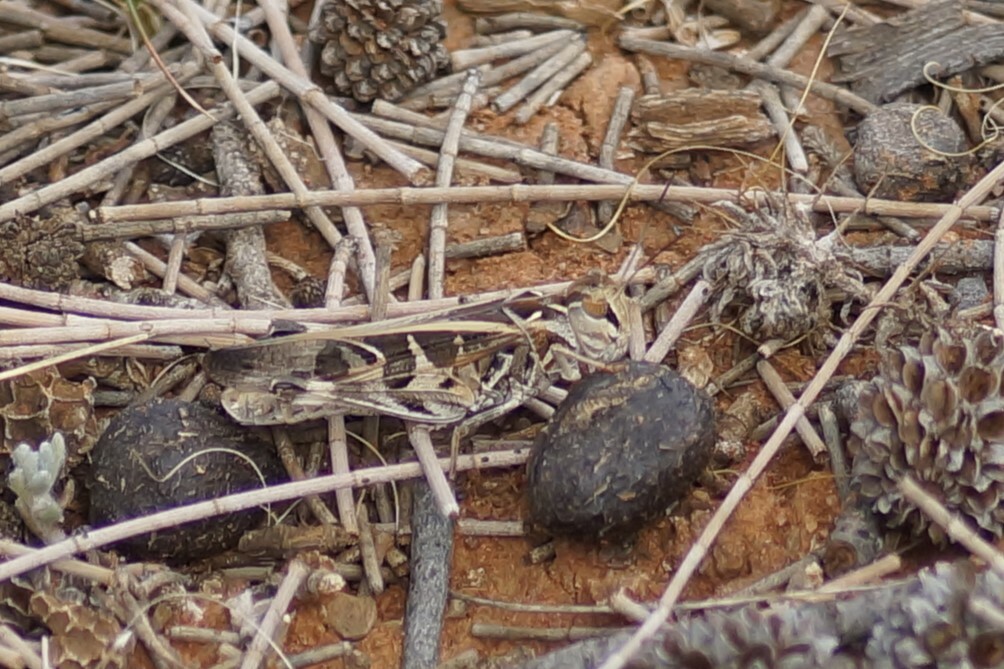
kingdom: Animalia
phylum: Arthropoda
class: Insecta
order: Orthoptera
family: Acrididae
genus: Oedaleus
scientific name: Oedaleus australis
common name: Eastern oedaleus
